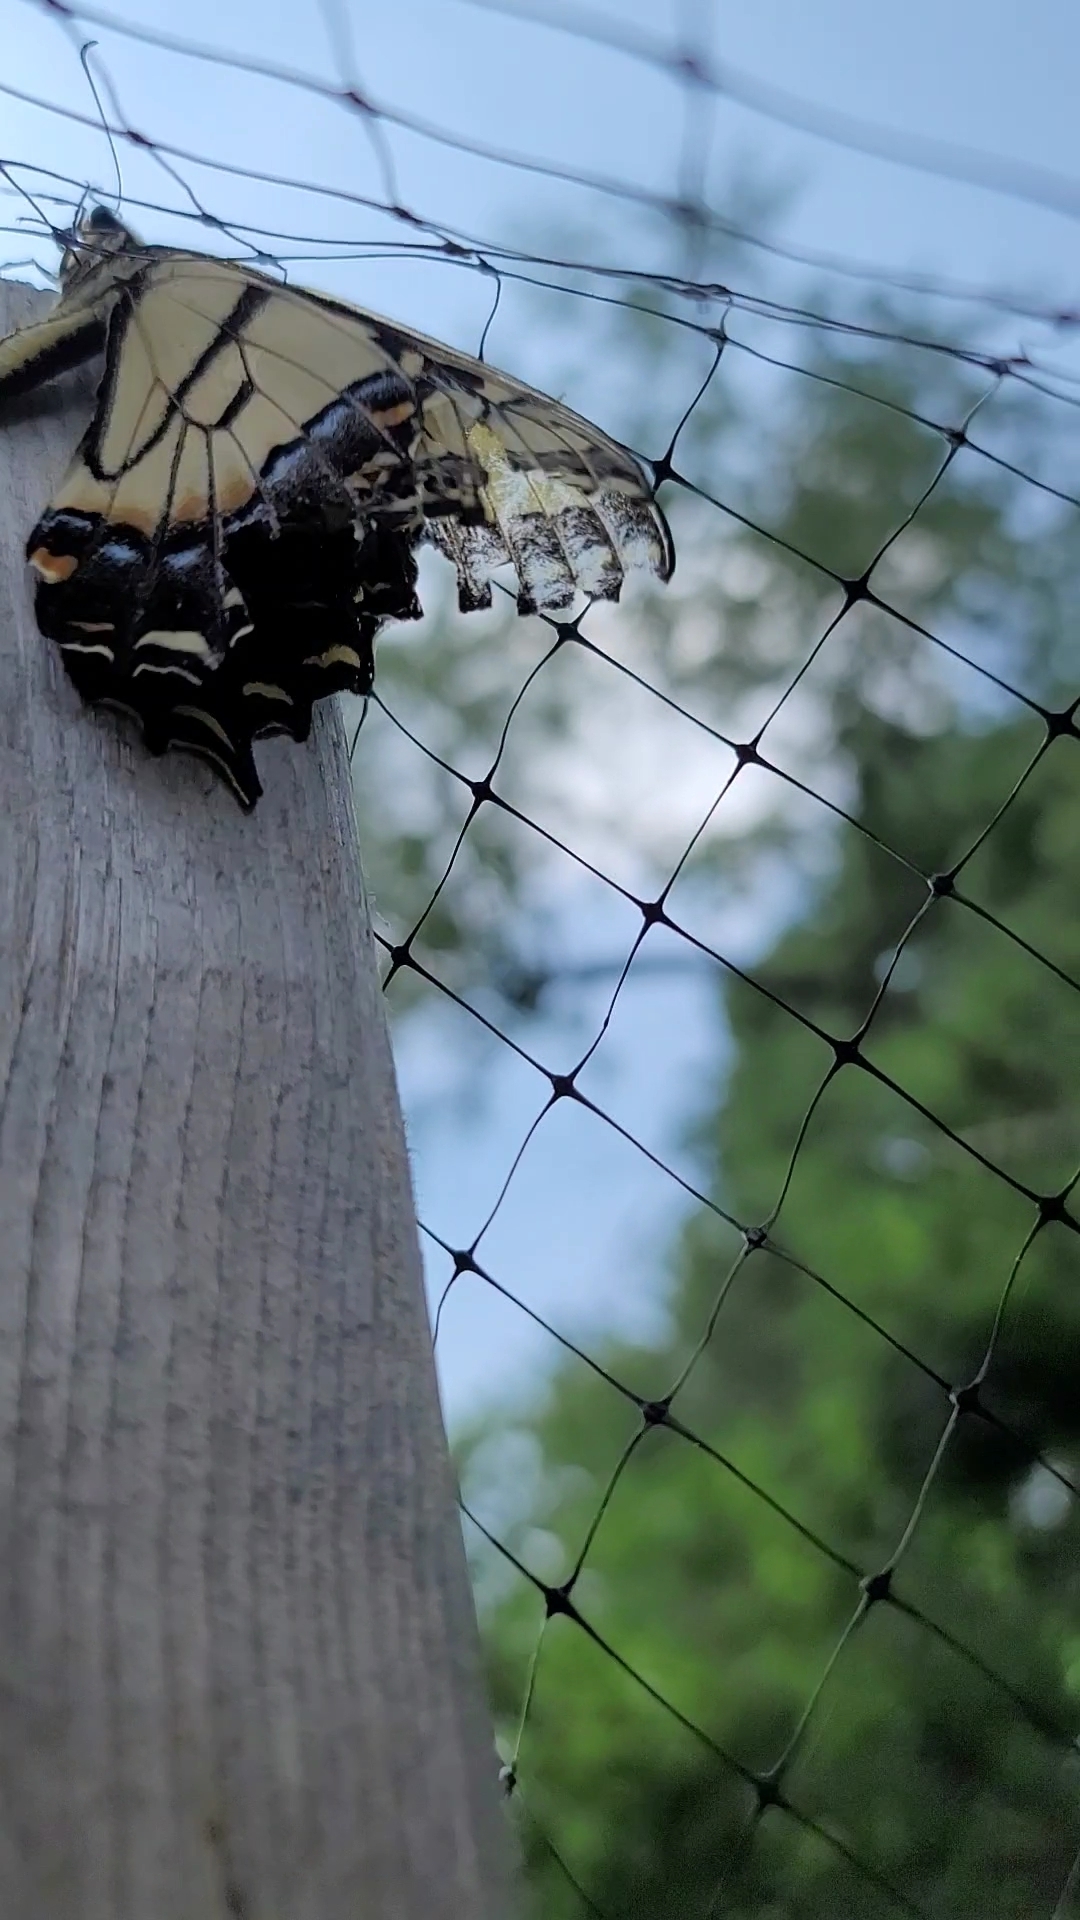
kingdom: Animalia
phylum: Arthropoda
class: Insecta
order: Lepidoptera
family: Papilionidae
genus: Papilio
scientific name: Papilio glaucus
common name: Tiger swallowtail
